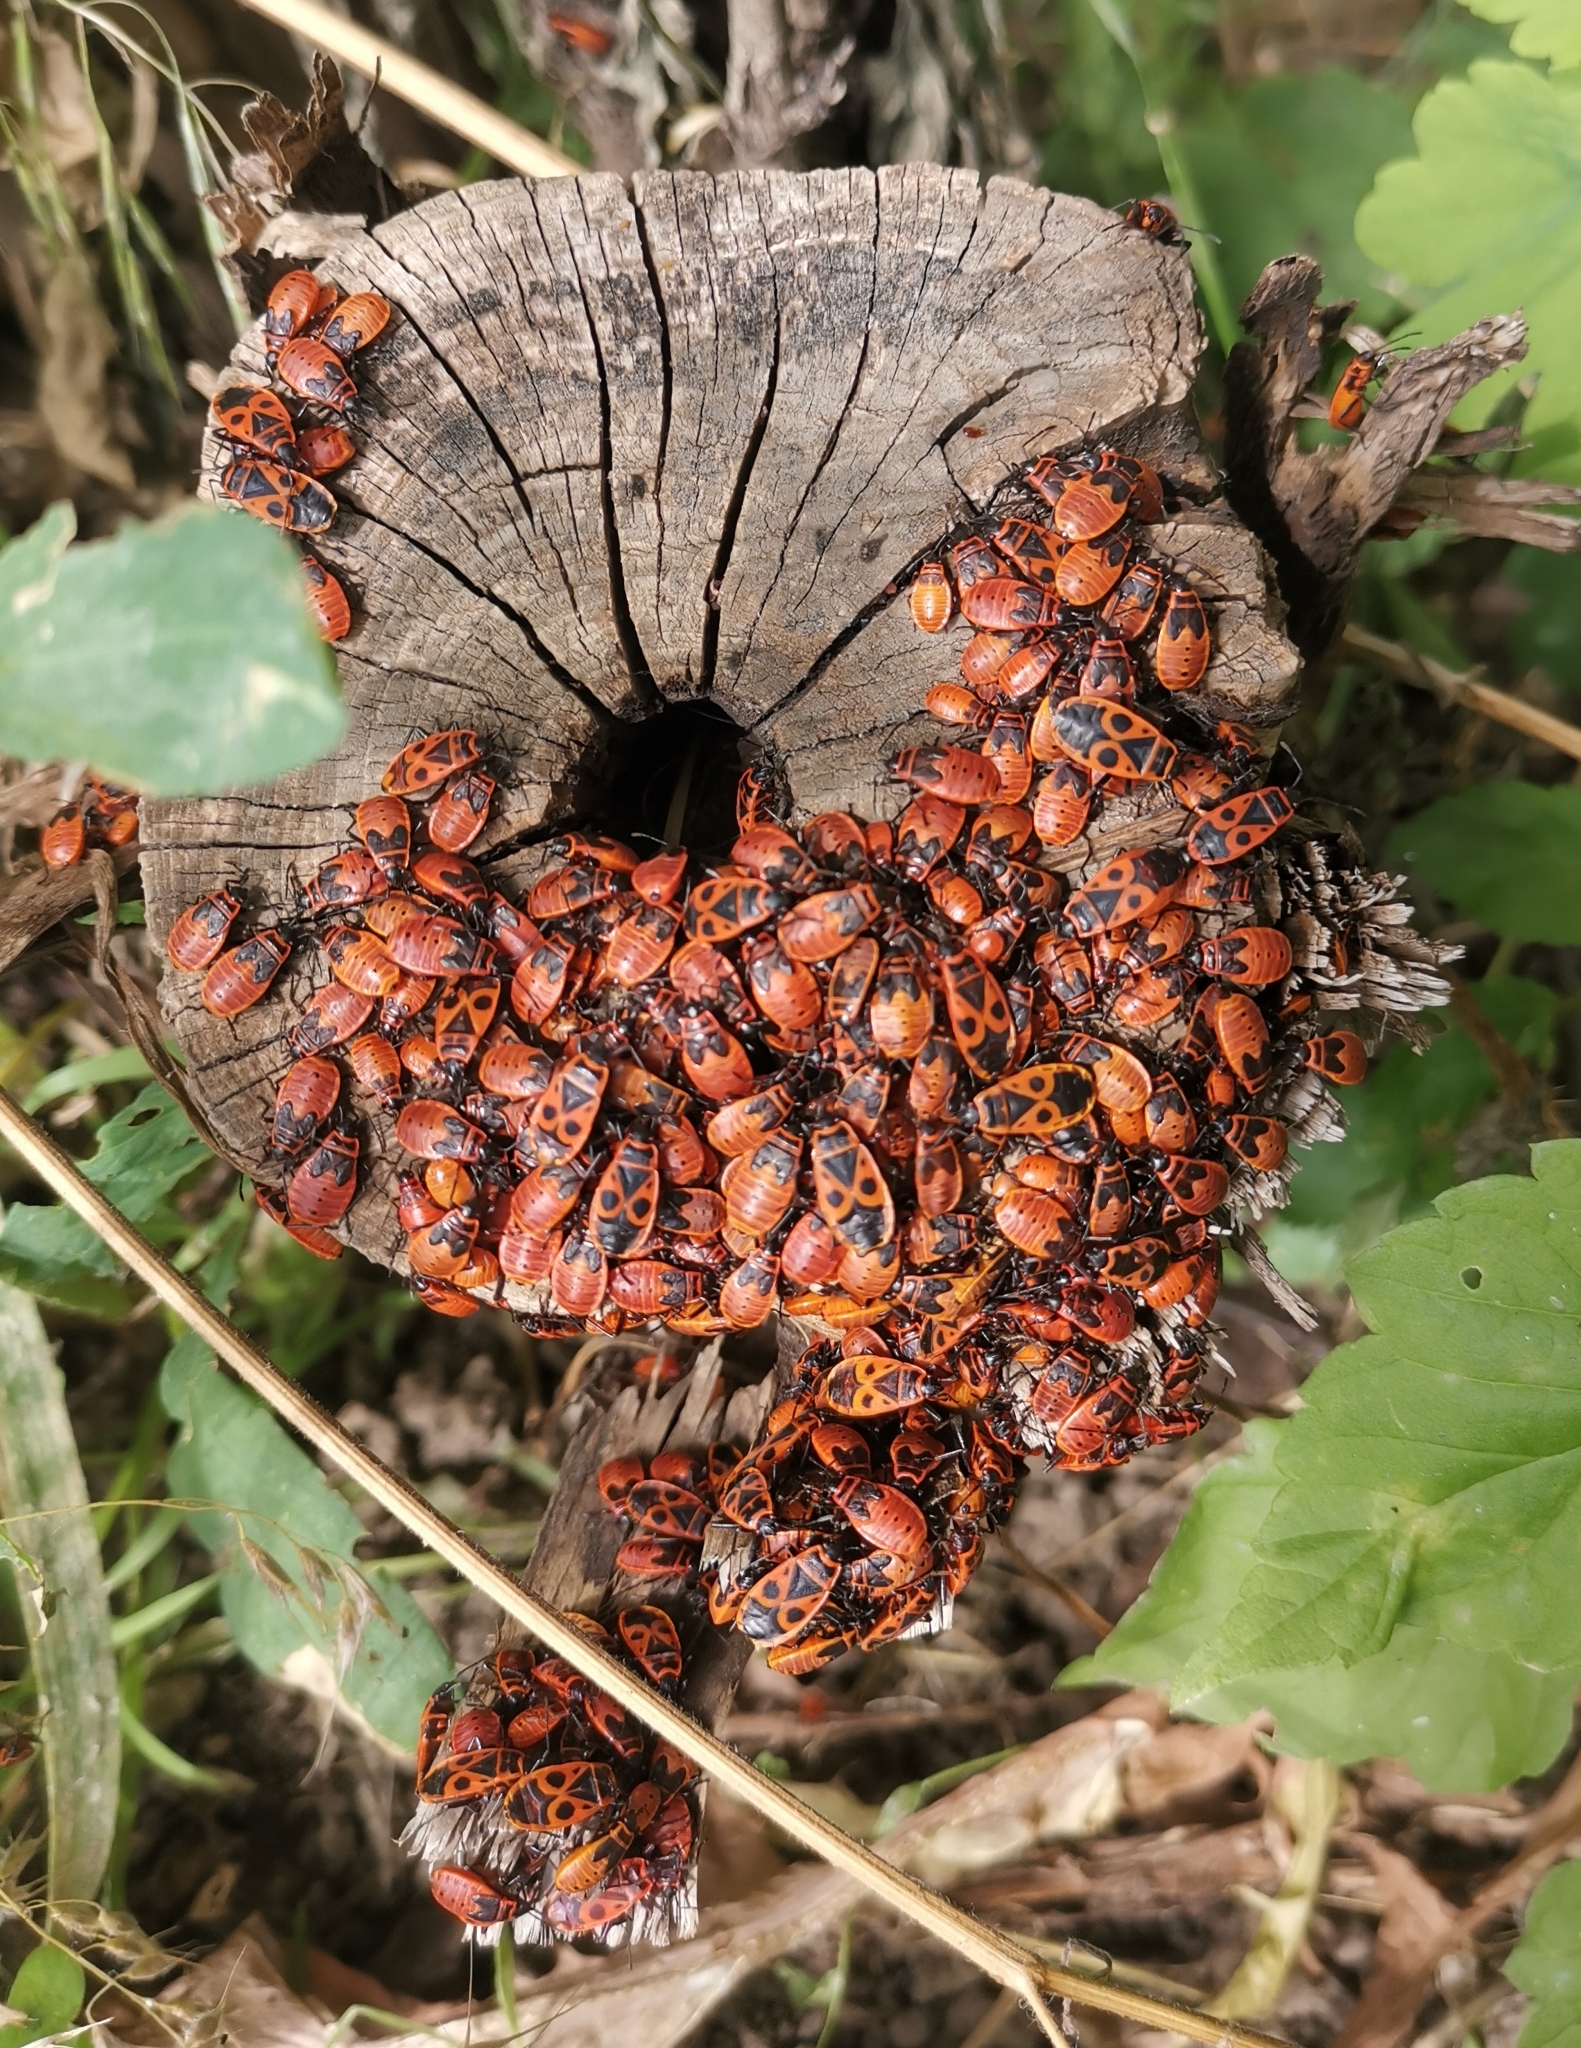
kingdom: Animalia
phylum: Arthropoda
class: Insecta
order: Hemiptera
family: Pyrrhocoridae
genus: Pyrrhocoris
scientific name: Pyrrhocoris apterus
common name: Firebug
